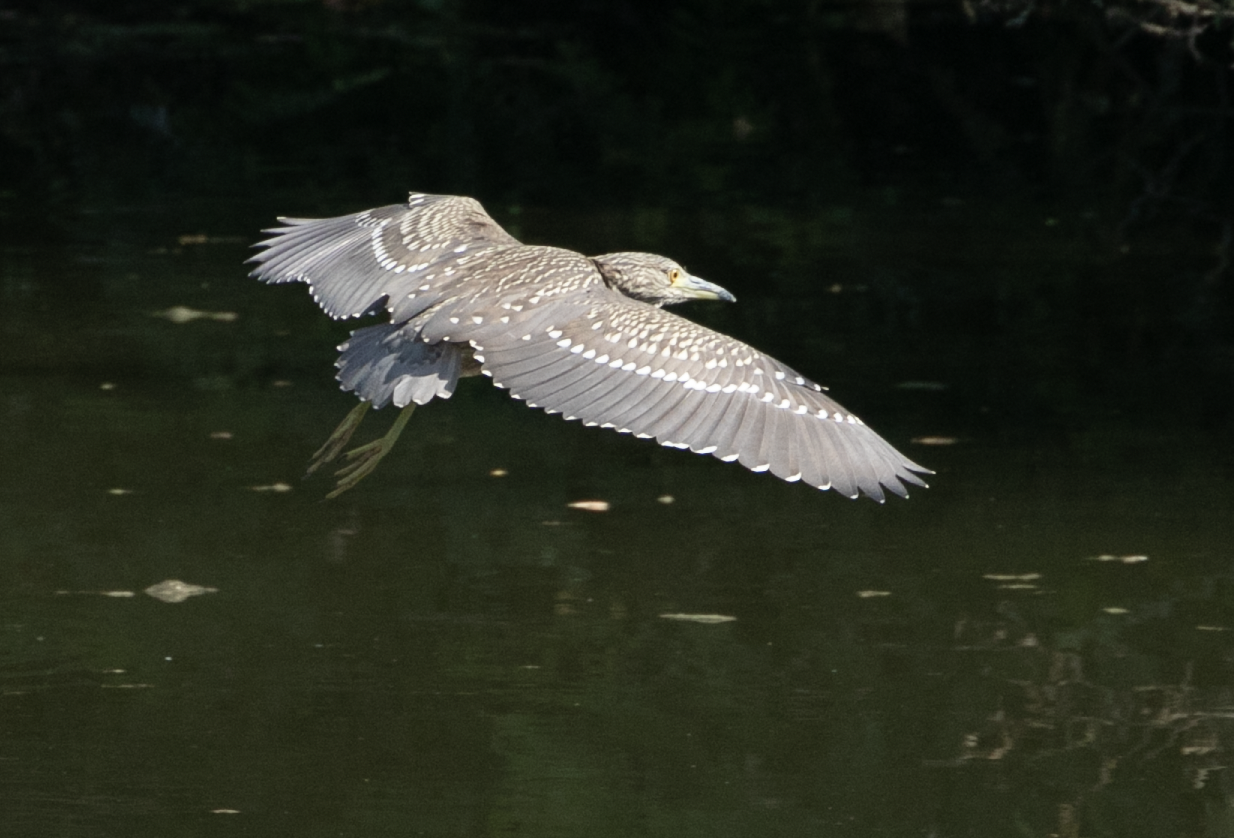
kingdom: Animalia
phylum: Chordata
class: Aves
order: Pelecaniformes
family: Ardeidae
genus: Nycticorax
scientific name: Nycticorax nycticorax
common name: Black-crowned night heron
